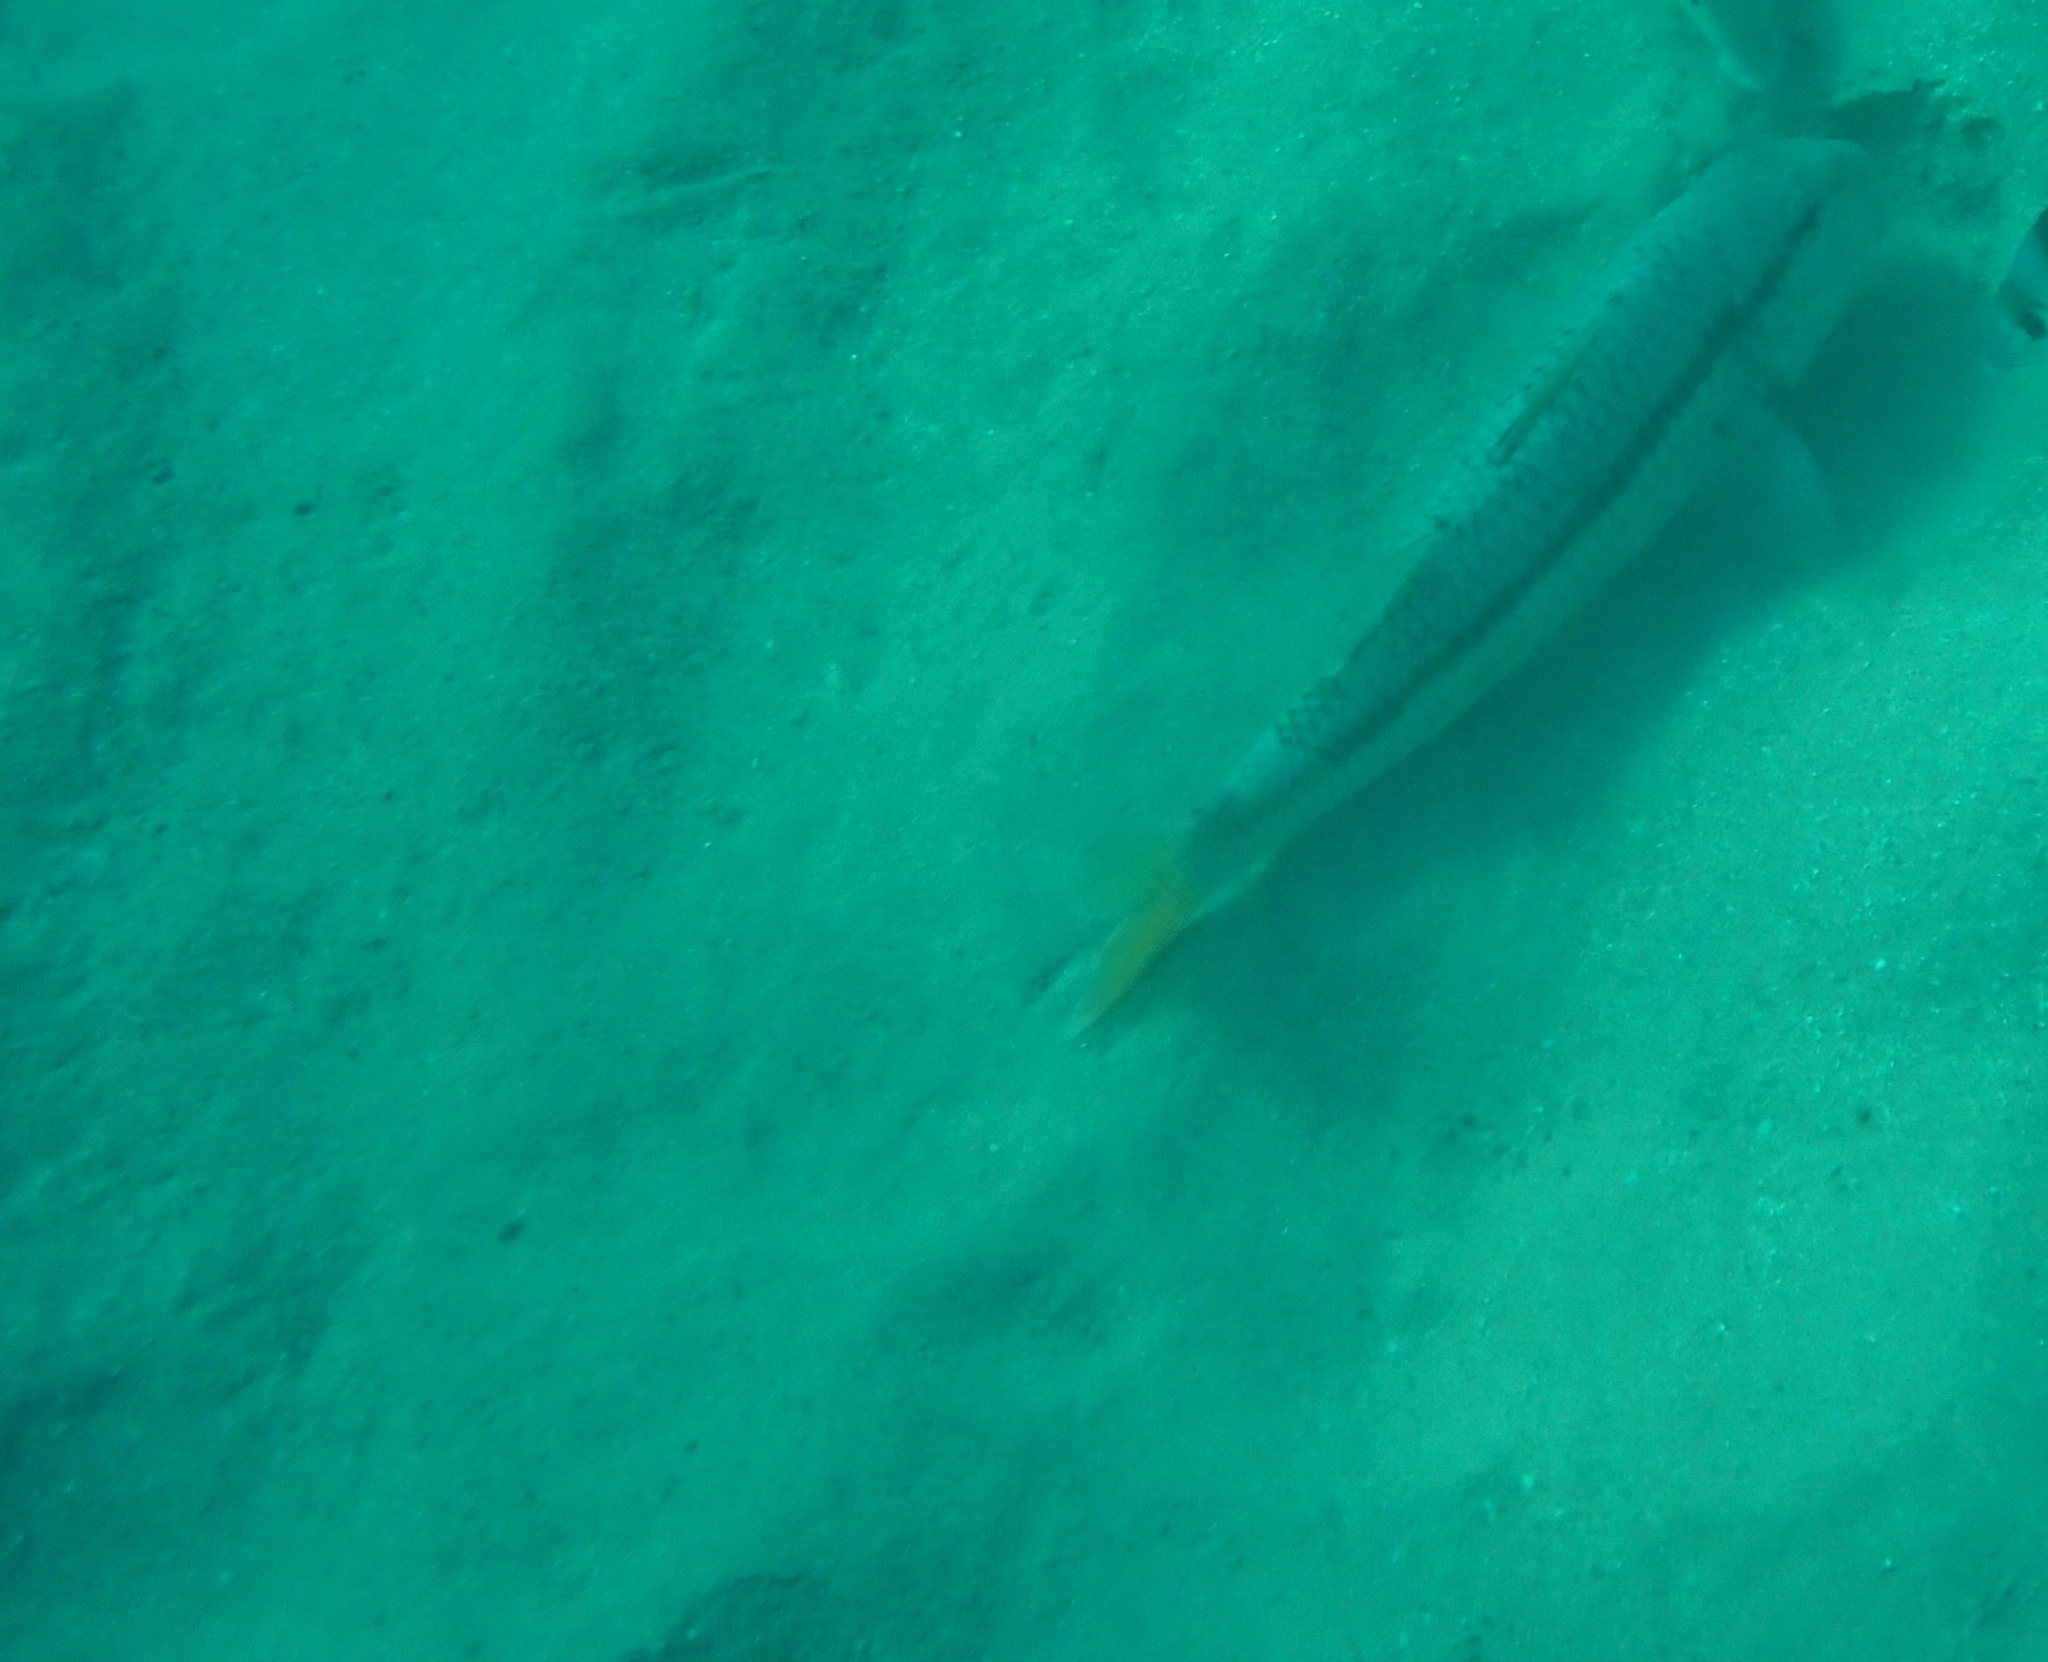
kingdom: Animalia
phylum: Chordata
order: Perciformes
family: Mullidae
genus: Mullus
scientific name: Mullus surmuletus
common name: Red mullet
